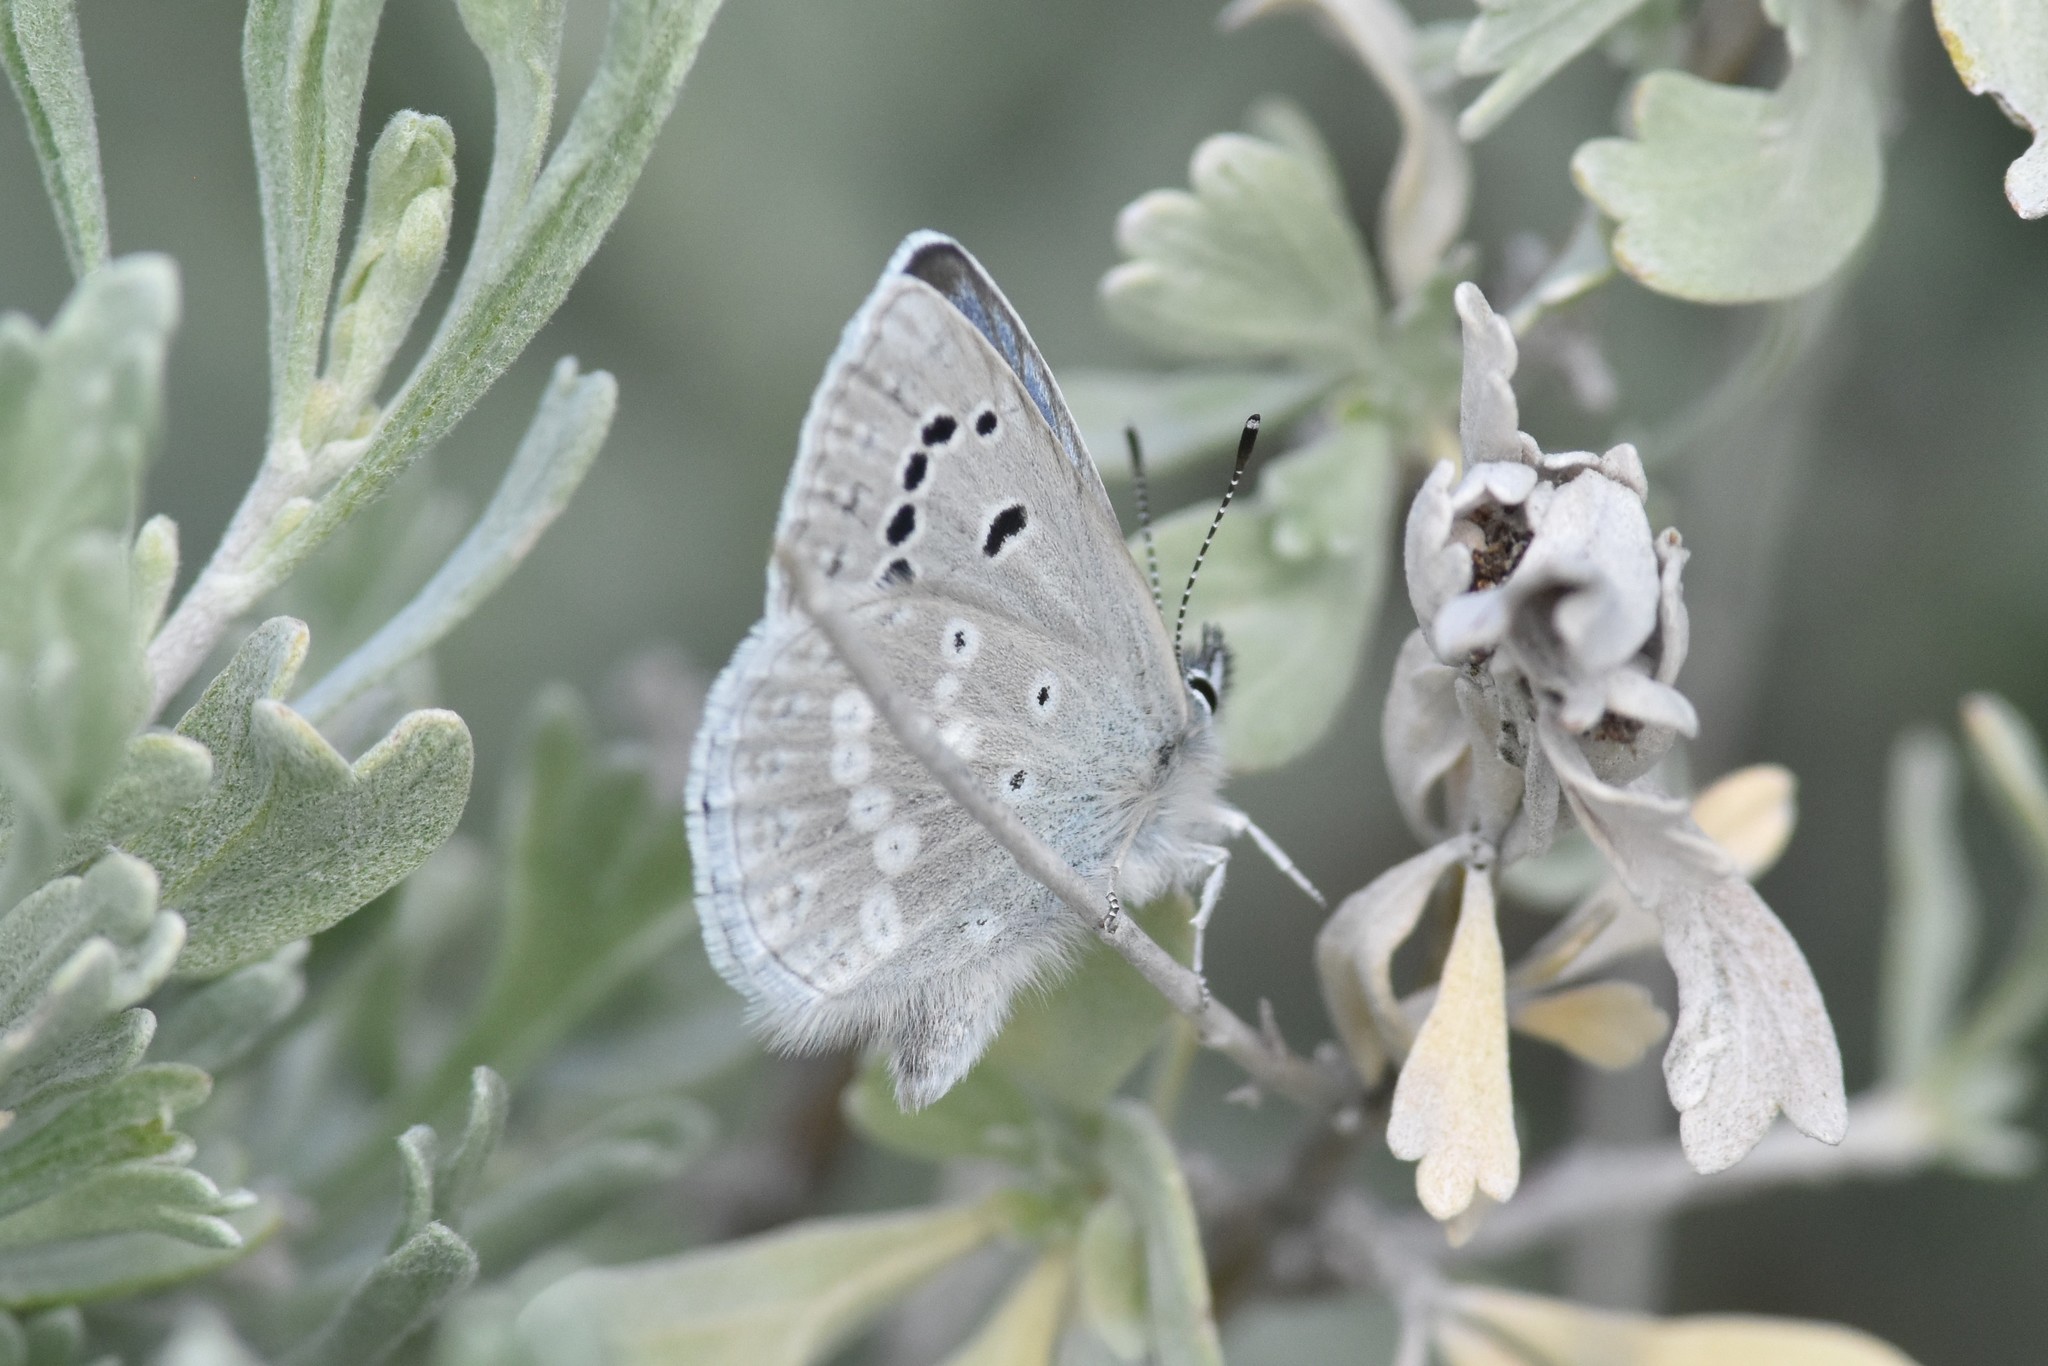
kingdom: Animalia
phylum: Arthropoda
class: Insecta
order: Lepidoptera
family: Lycaenidae
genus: Icaricia
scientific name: Icaricia icarioides
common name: Boisduval's blue
